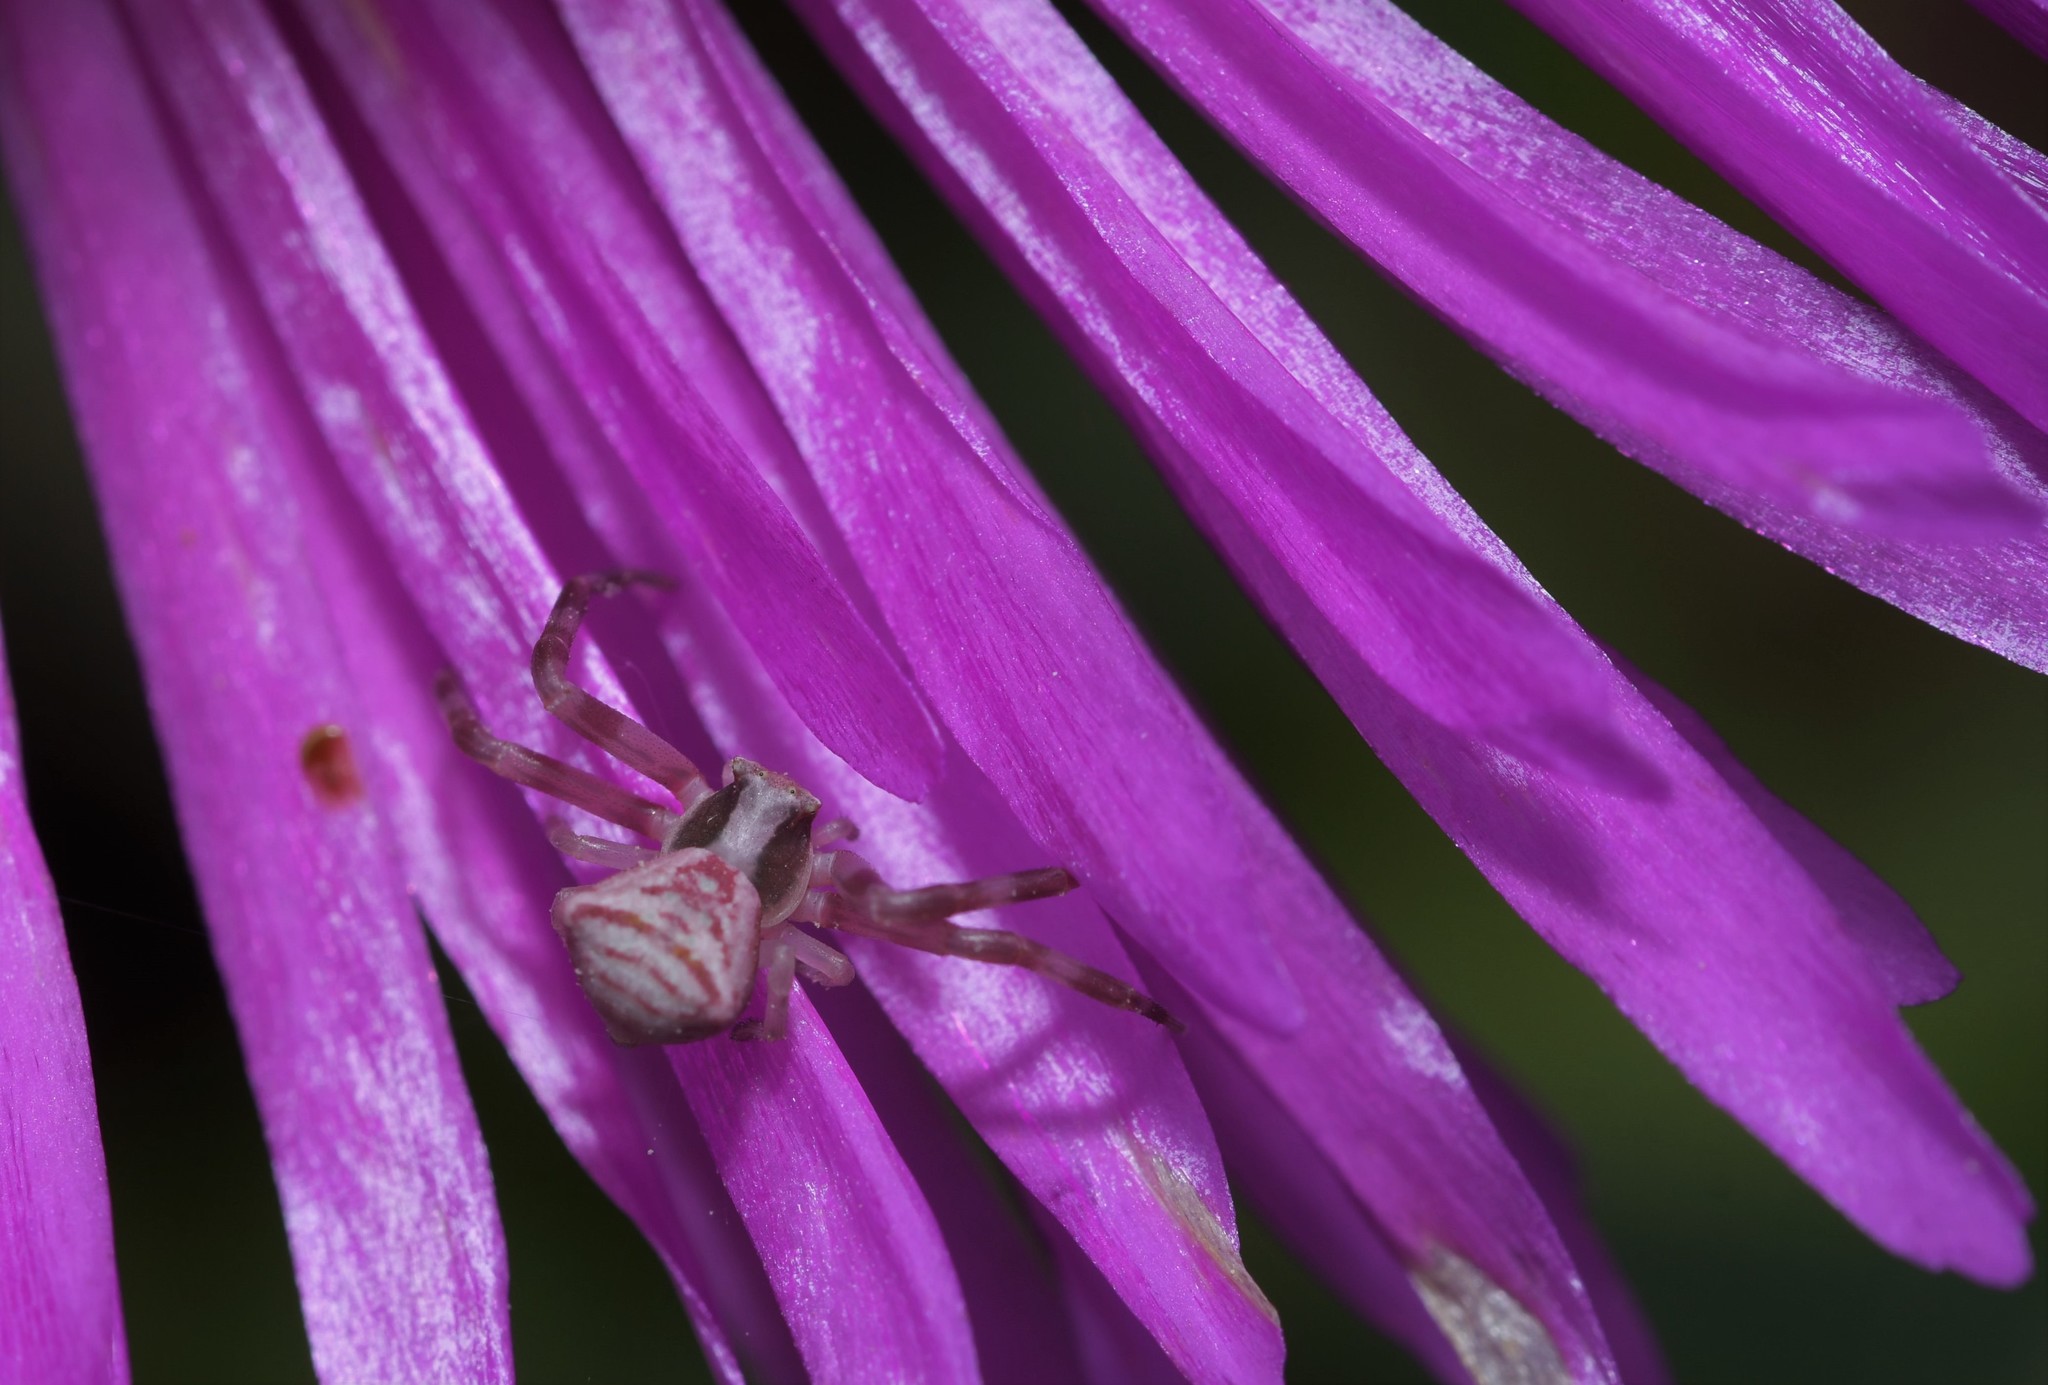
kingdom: Animalia
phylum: Arthropoda
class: Arachnida
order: Araneae
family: Thomisidae
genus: Thomisus
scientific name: Thomisus onustus
